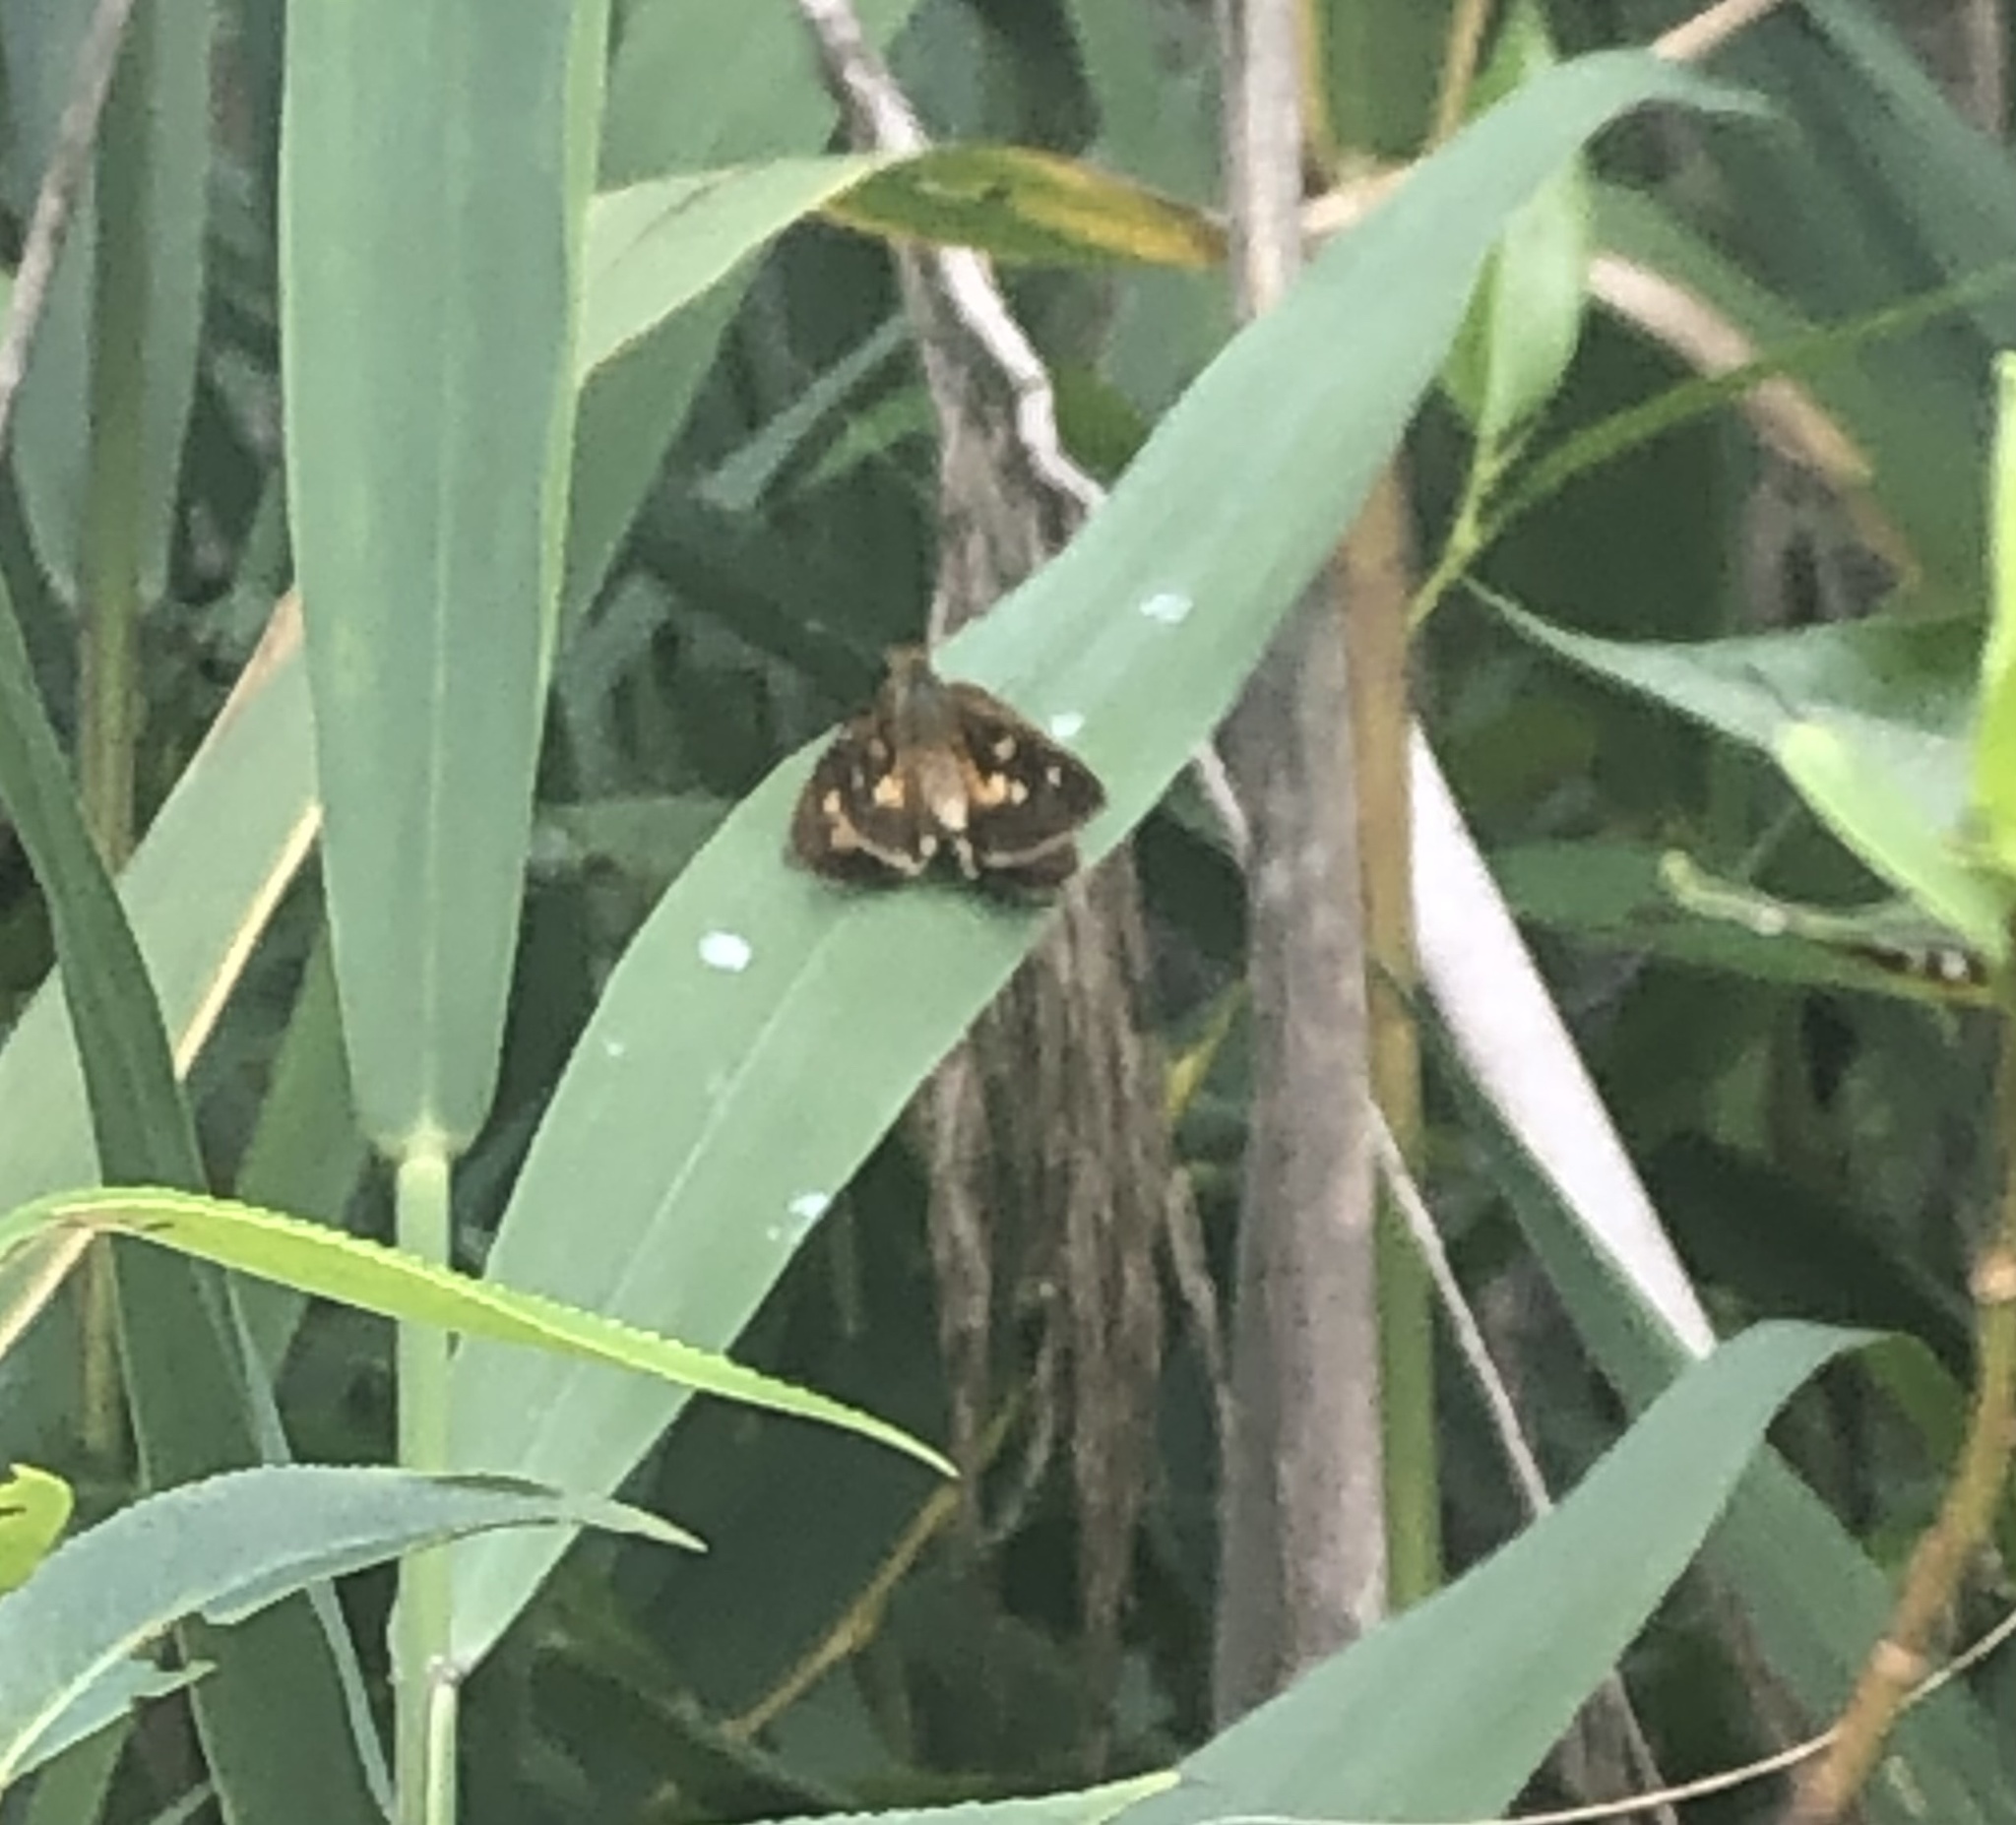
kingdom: Animalia
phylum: Arthropoda
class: Insecta
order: Lepidoptera
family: Hesperiidae
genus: Poanes
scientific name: Poanes viator
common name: Broad-winged skipper
